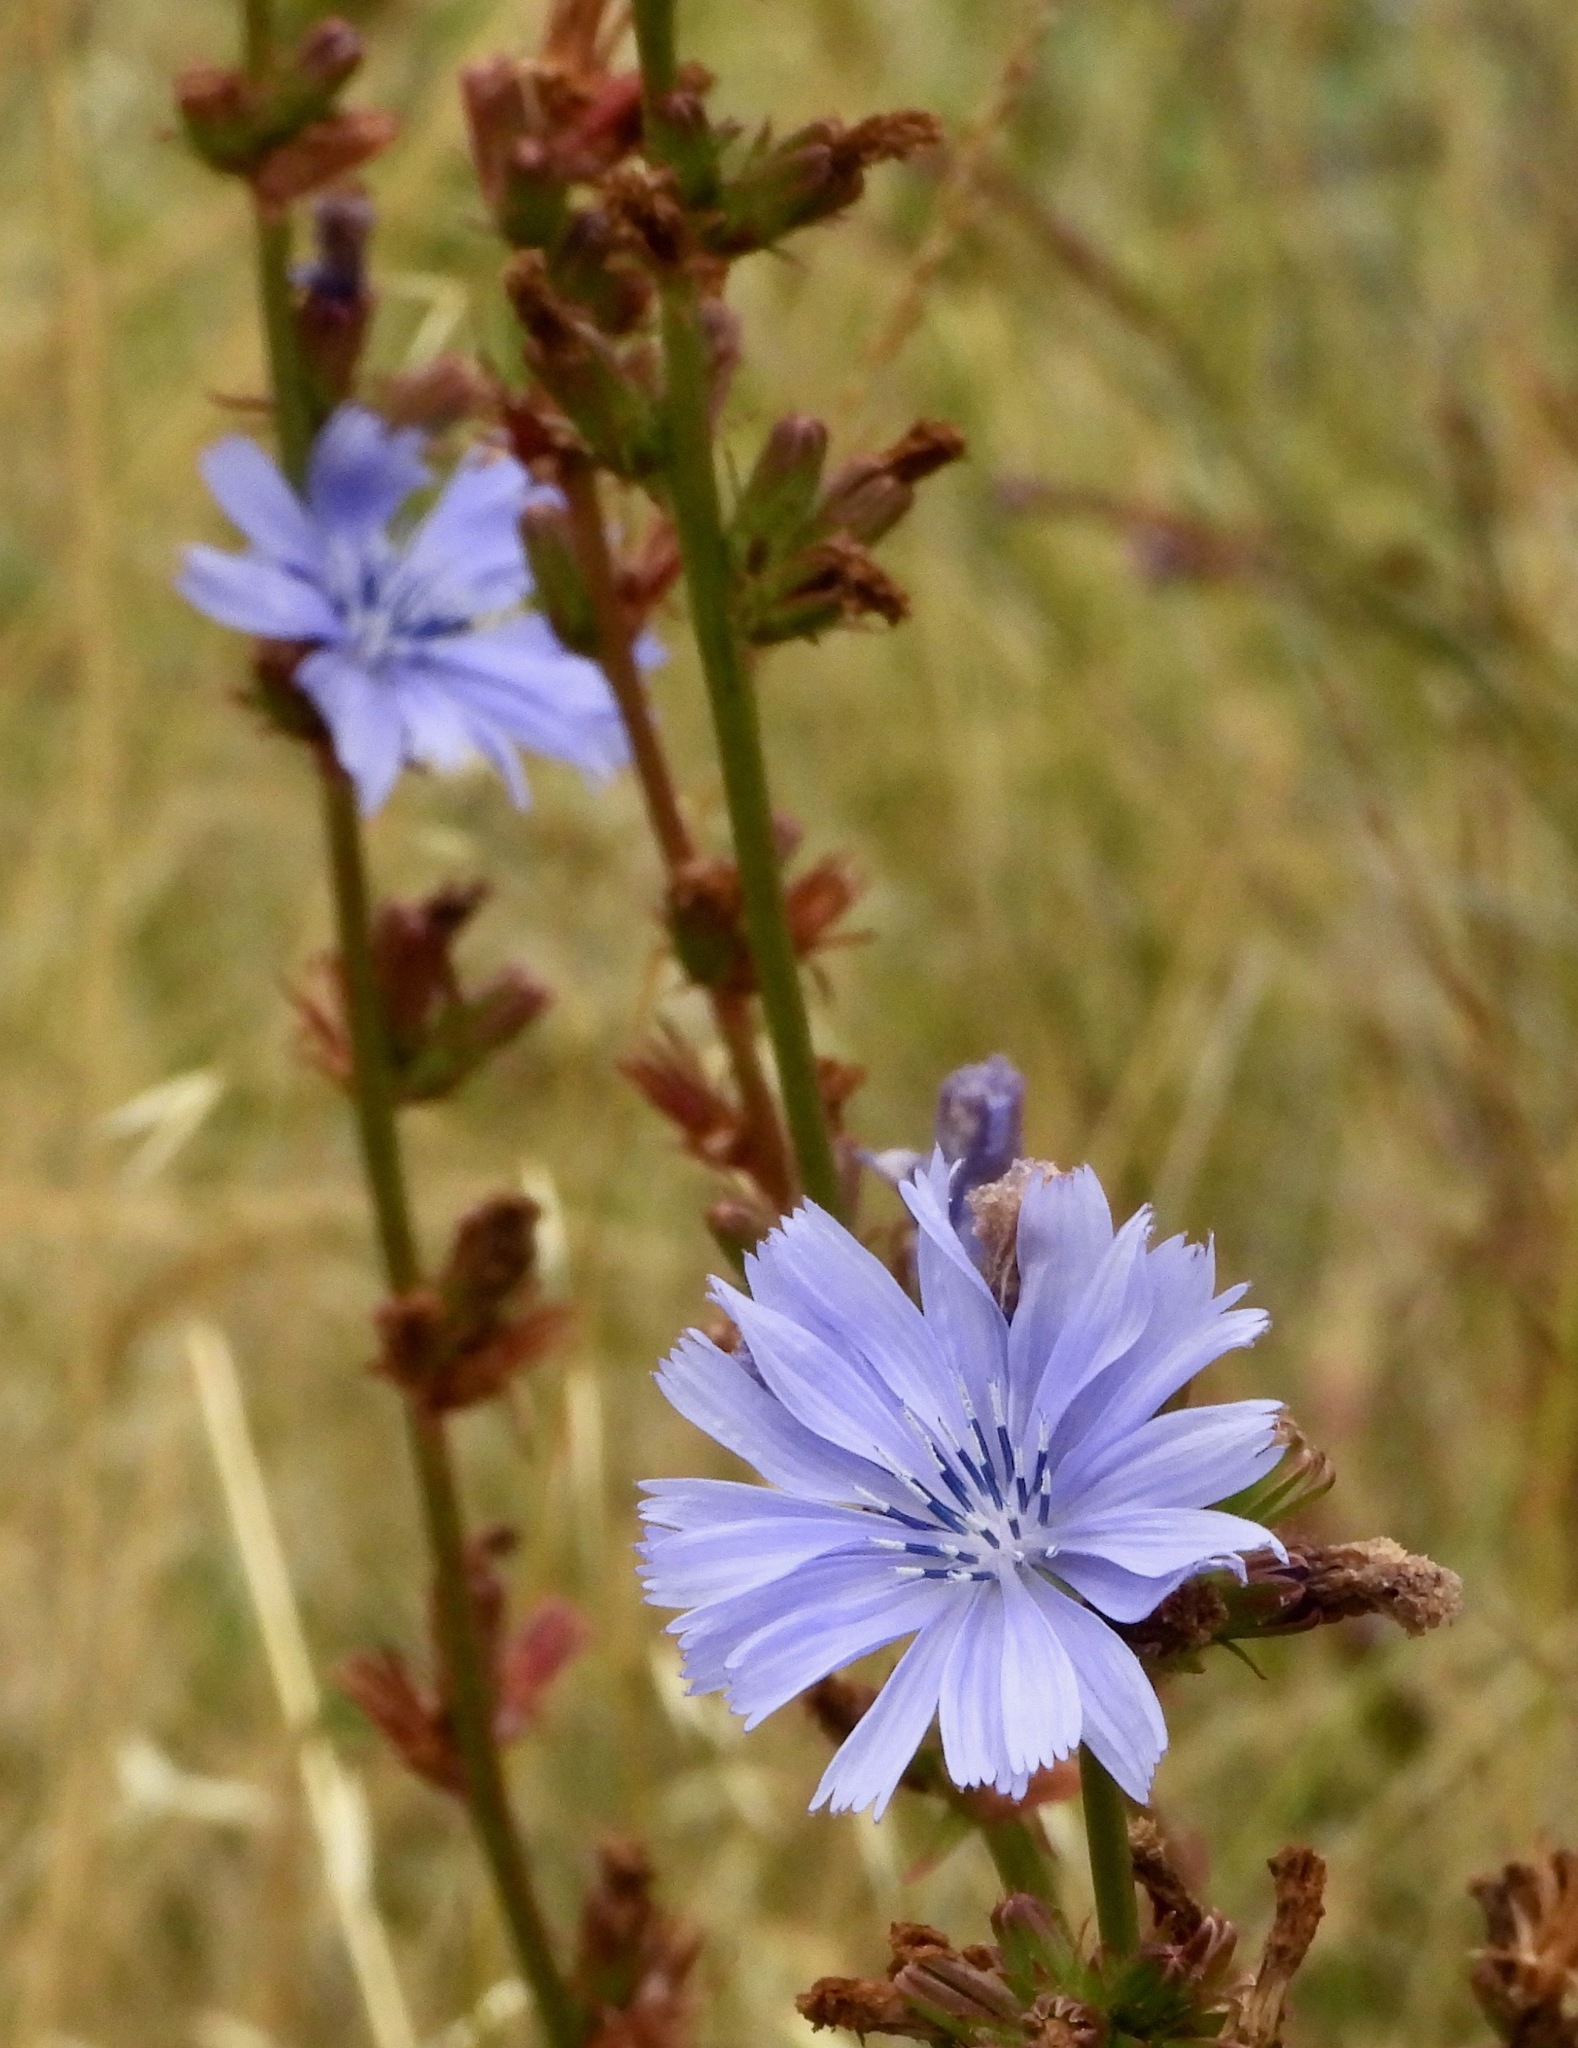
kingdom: Plantae
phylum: Tracheophyta
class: Magnoliopsida
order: Asterales
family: Asteraceae
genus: Cichorium
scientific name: Cichorium intybus
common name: Chicory
